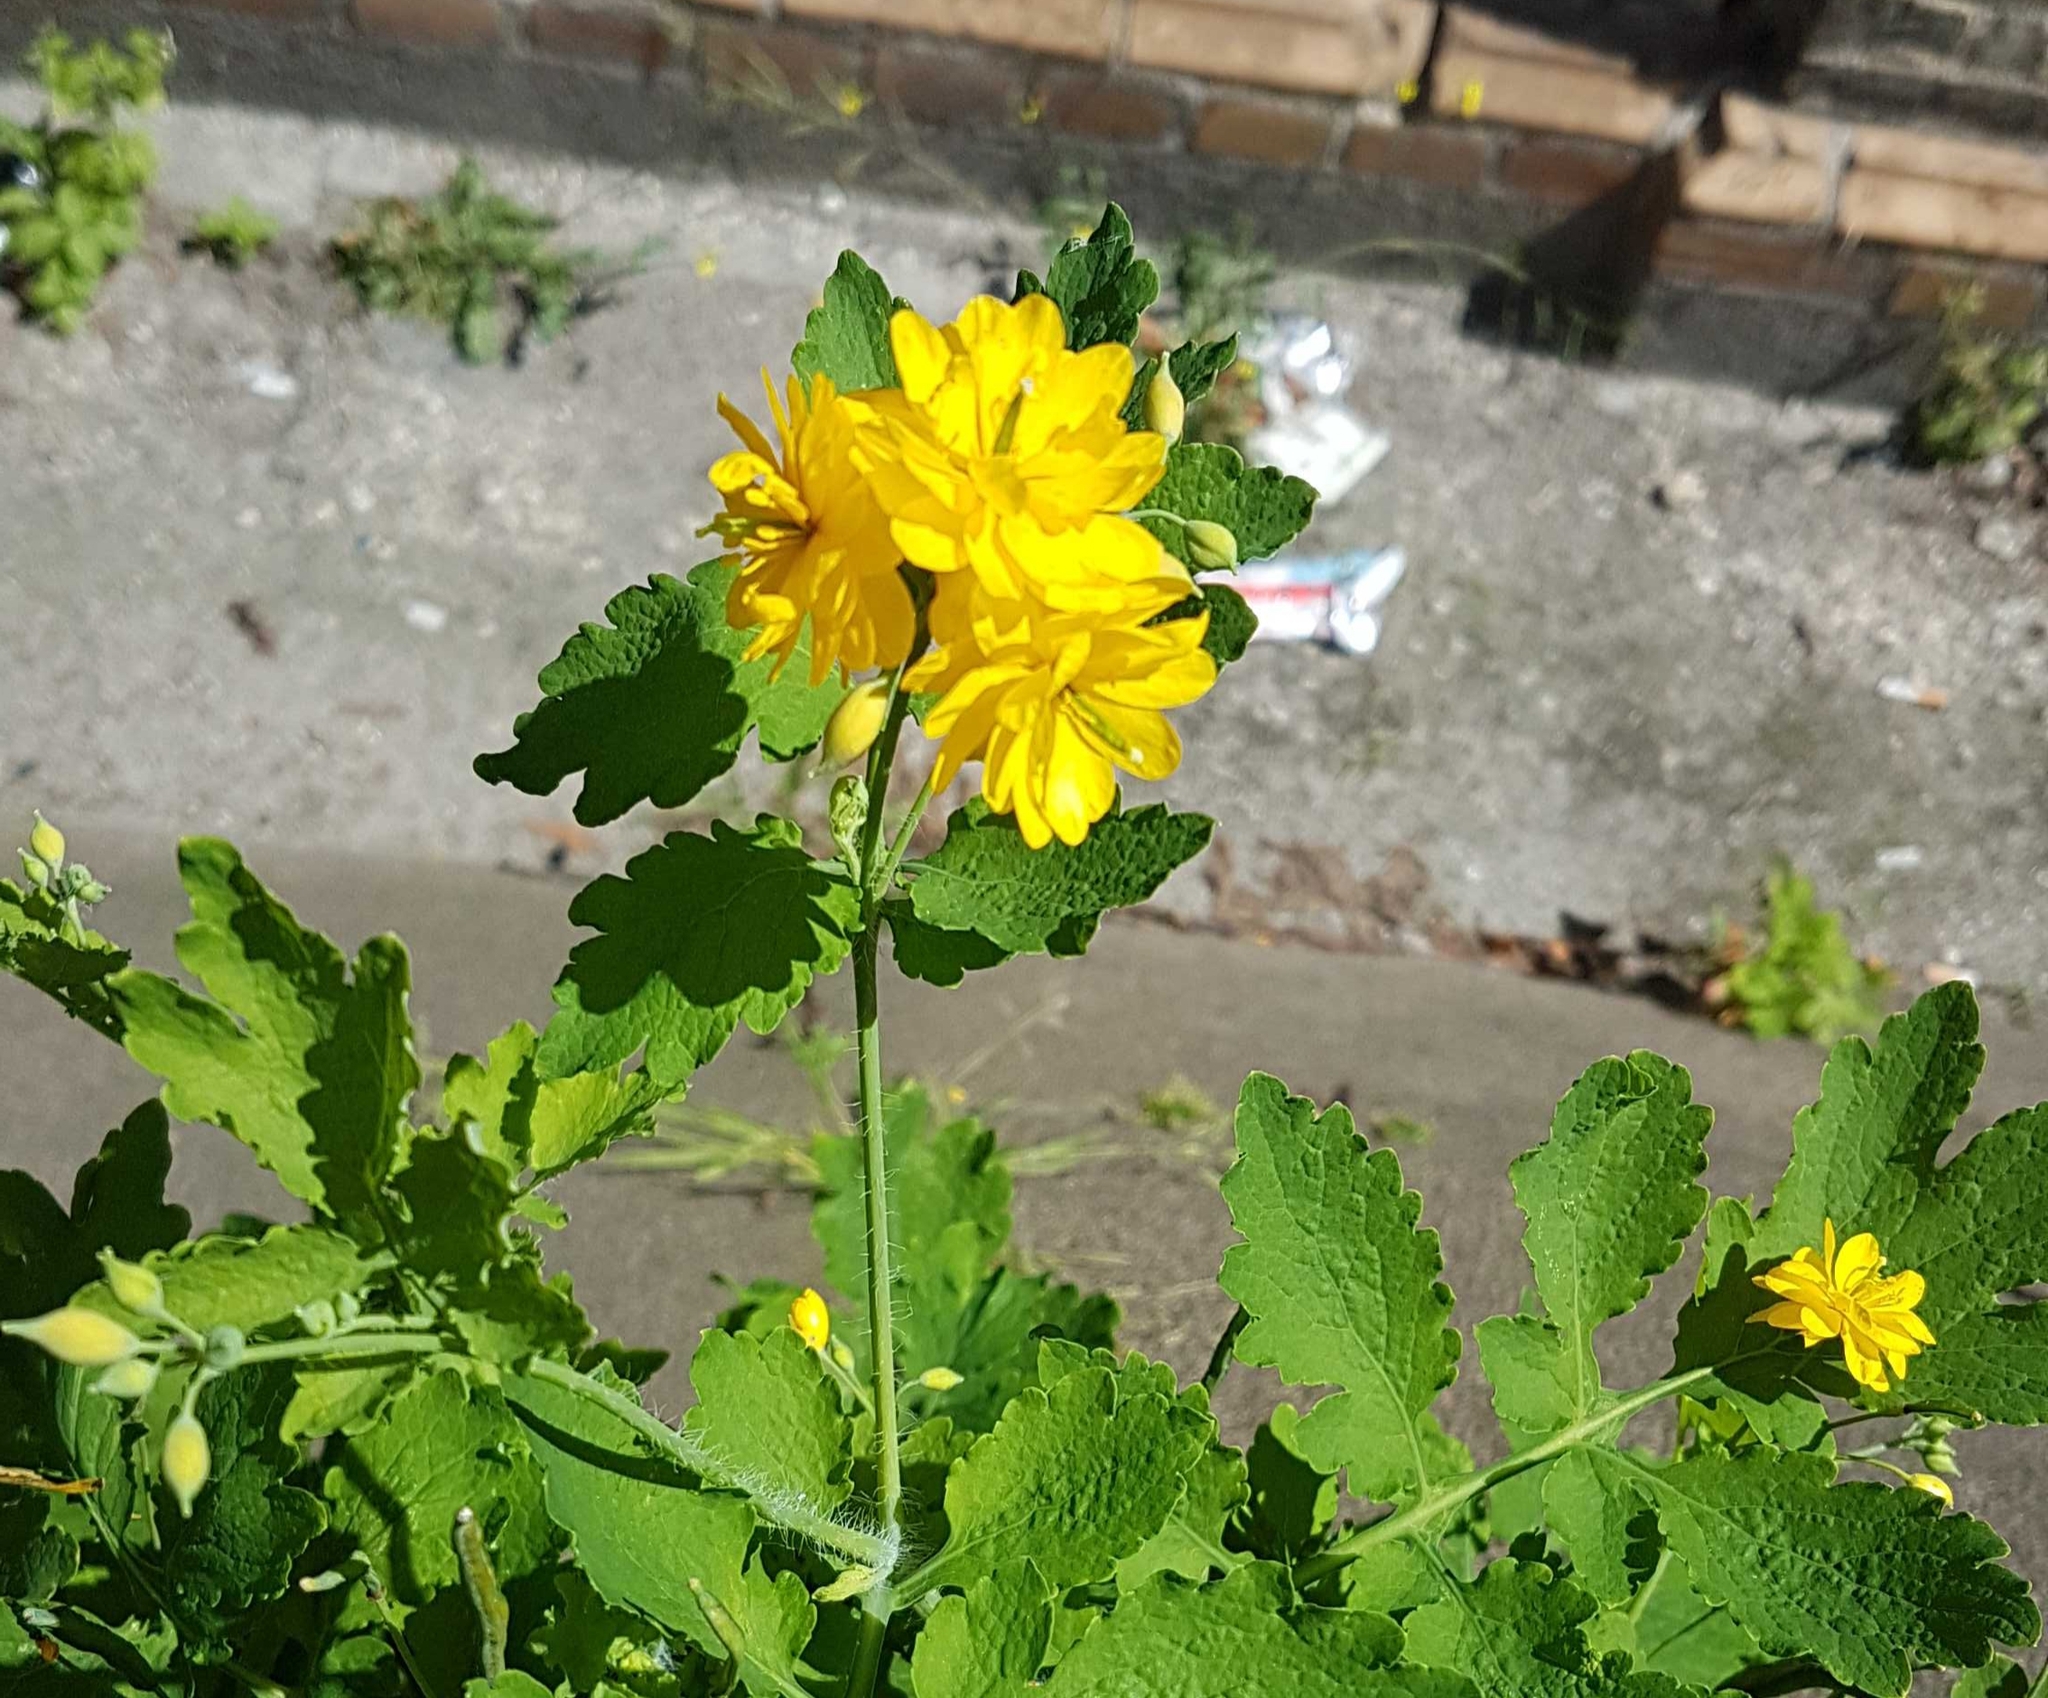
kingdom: Plantae
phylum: Tracheophyta
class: Magnoliopsida
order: Ranunculales
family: Papaveraceae
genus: Chelidonium
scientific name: Chelidonium majus
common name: Greater celandine
